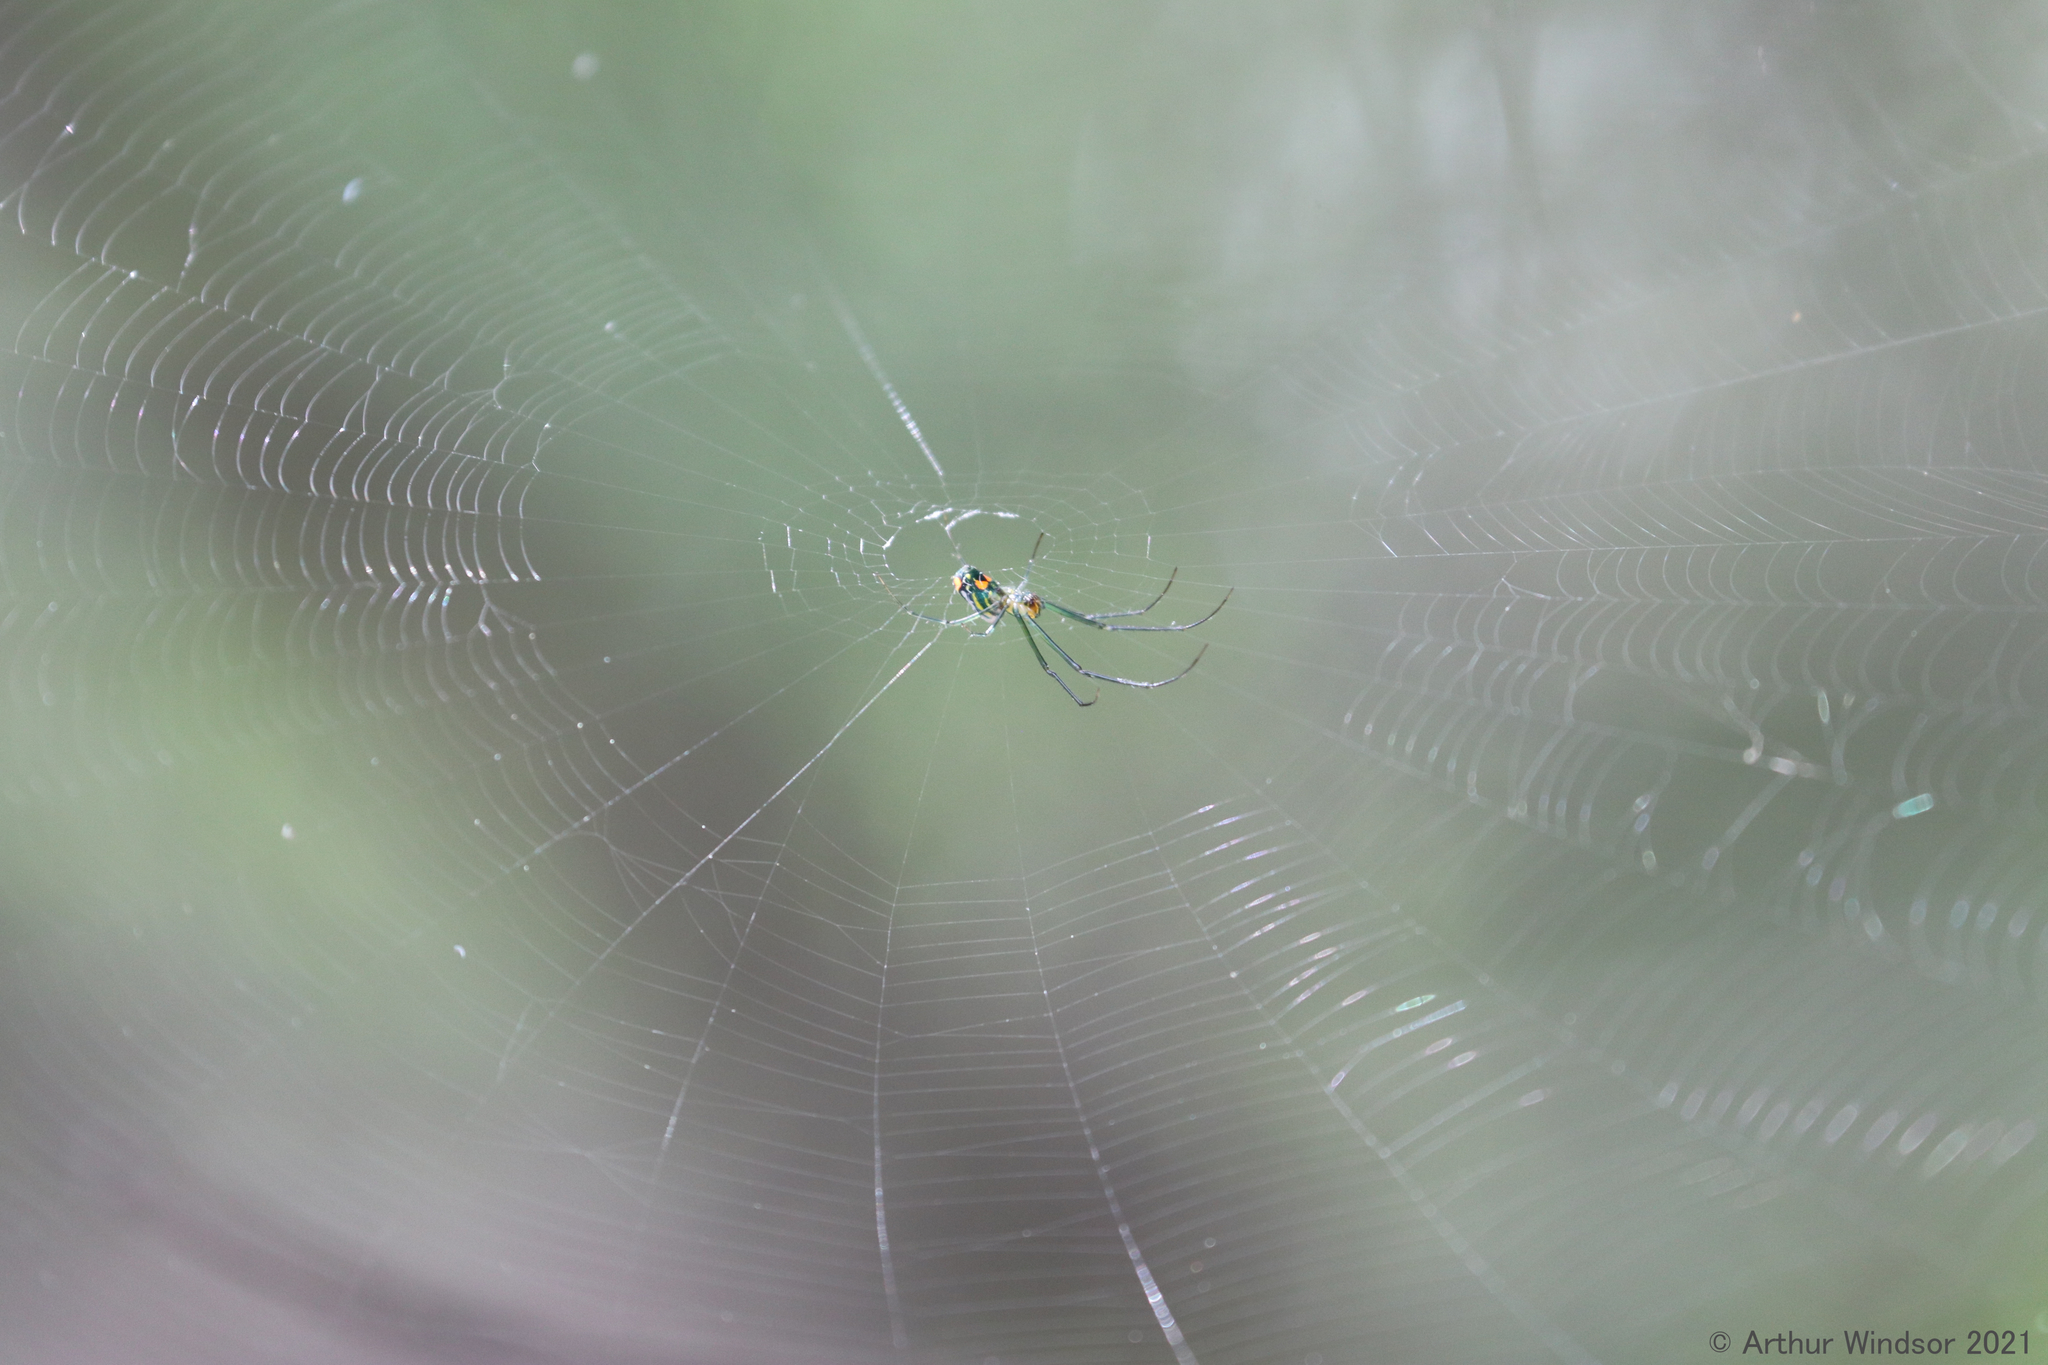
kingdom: Animalia
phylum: Arthropoda
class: Arachnida
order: Araneae
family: Tetragnathidae
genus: Leucauge
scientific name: Leucauge argyrobapta
